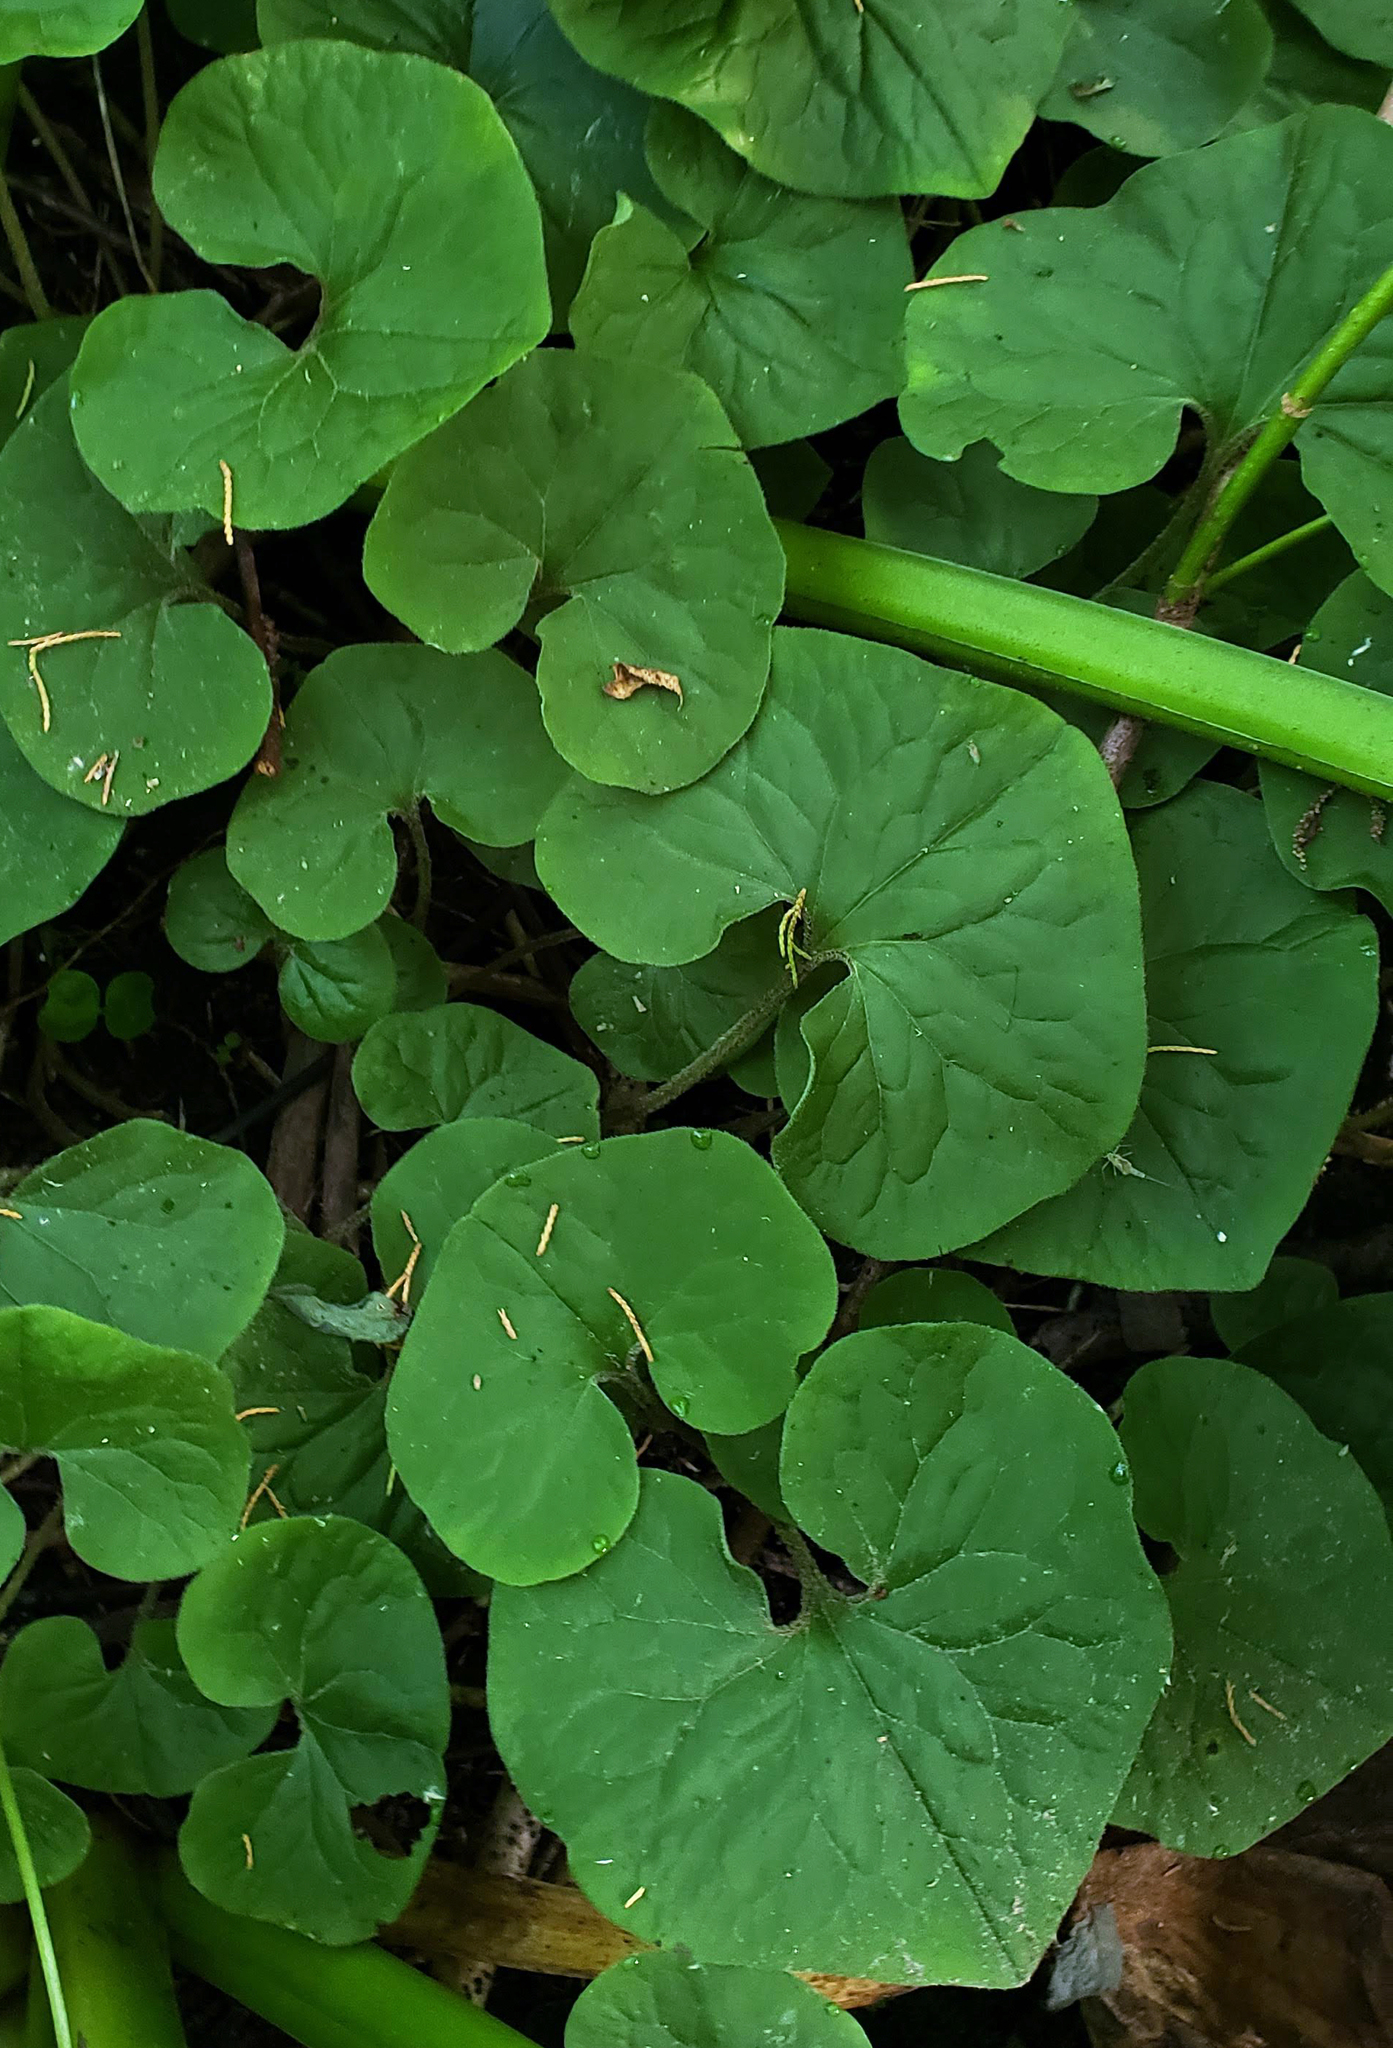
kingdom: Plantae
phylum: Tracheophyta
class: Magnoliopsida
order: Piperales
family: Aristolochiaceae
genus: Asarum
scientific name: Asarum canadense
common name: Wild ginger
